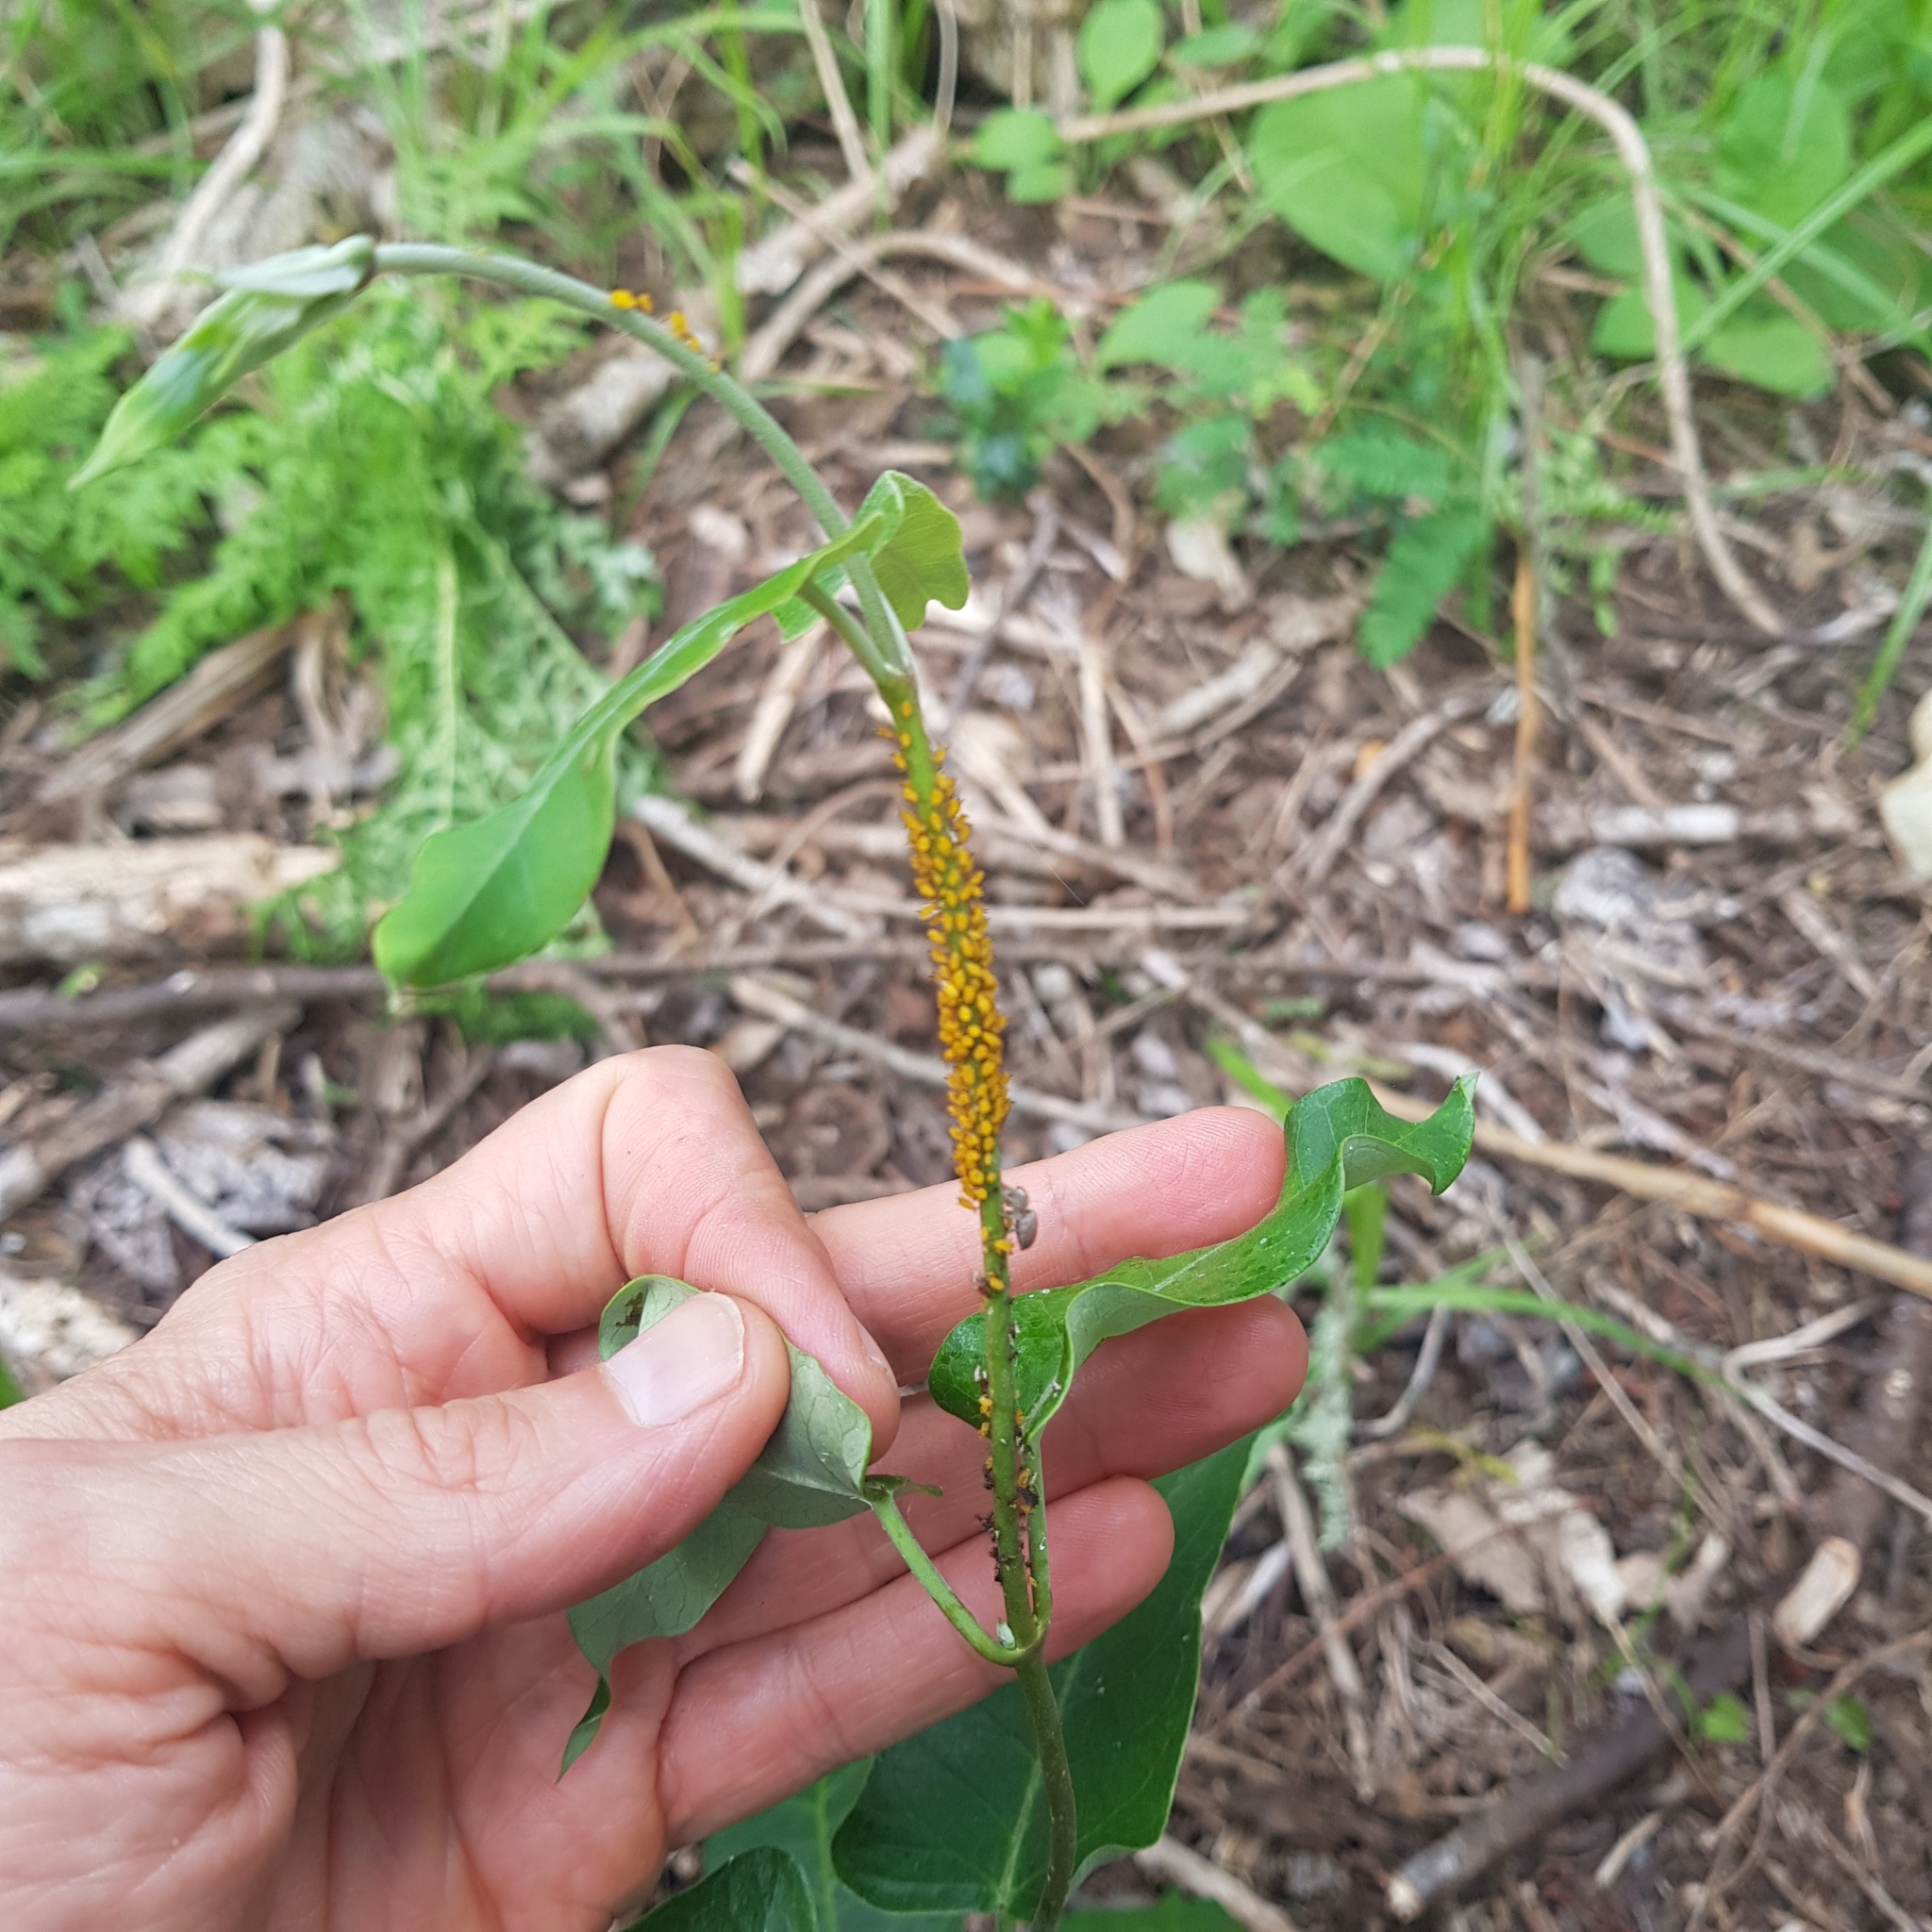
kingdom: Animalia
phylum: Arthropoda
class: Insecta
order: Hemiptera
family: Aphididae
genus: Aphis
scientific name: Aphis nerii
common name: Oleander aphid
